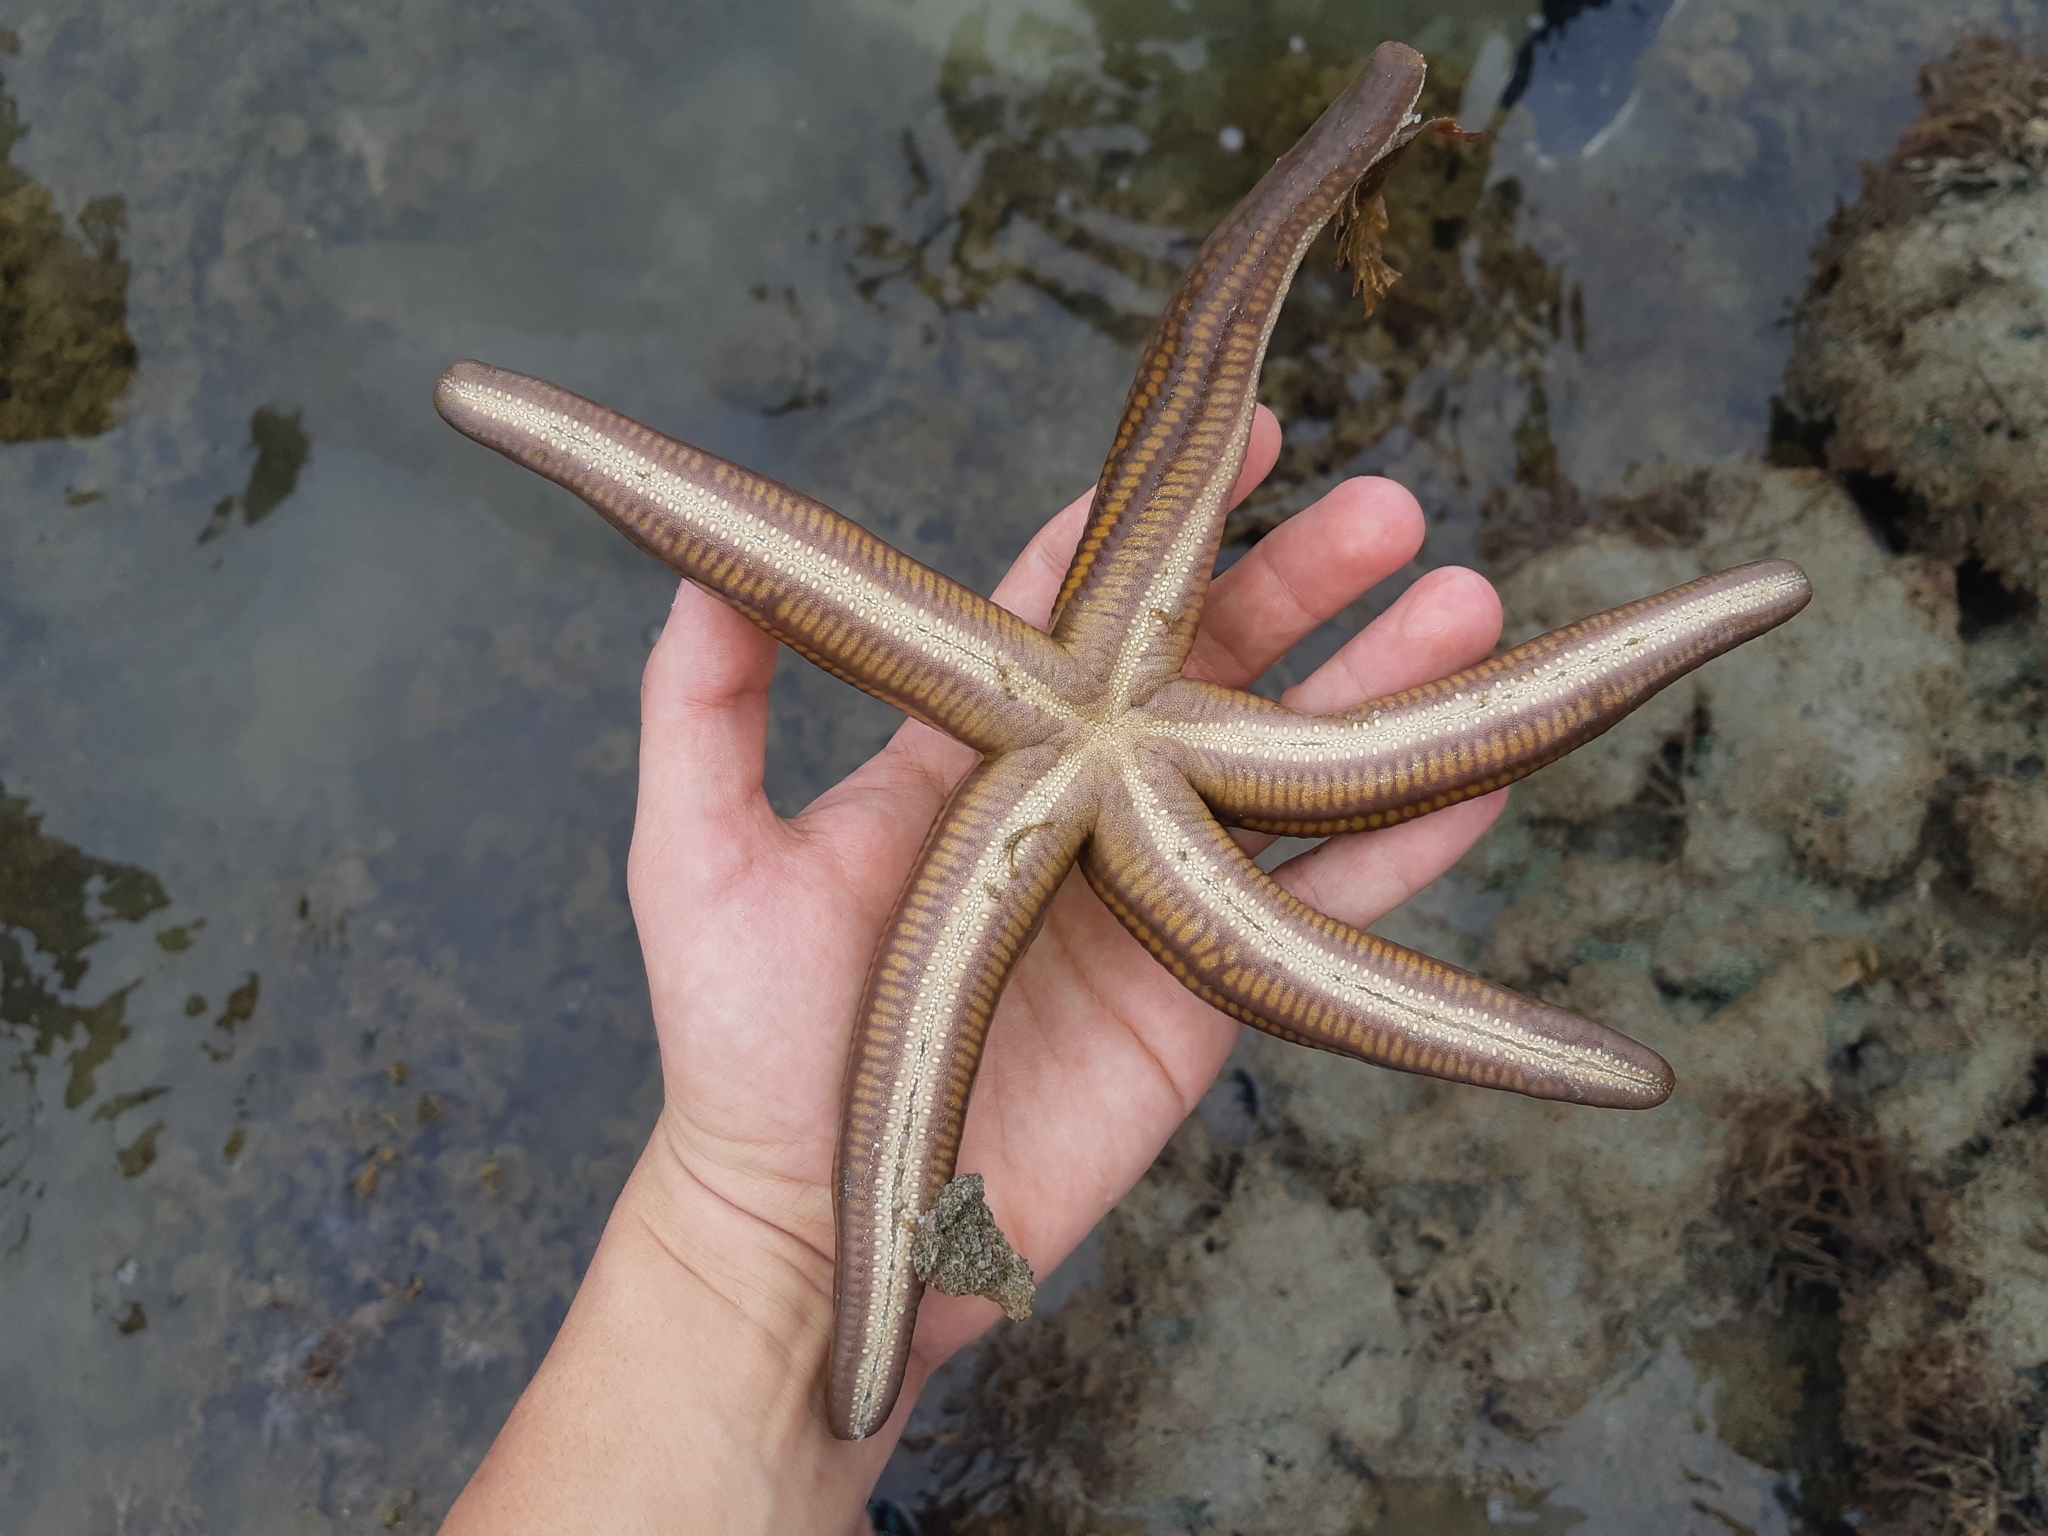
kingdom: Animalia
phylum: Echinodermata
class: Asteroidea
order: Valvatida
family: Ophidiasteridae
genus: Pharia
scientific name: Pharia pyramidata
